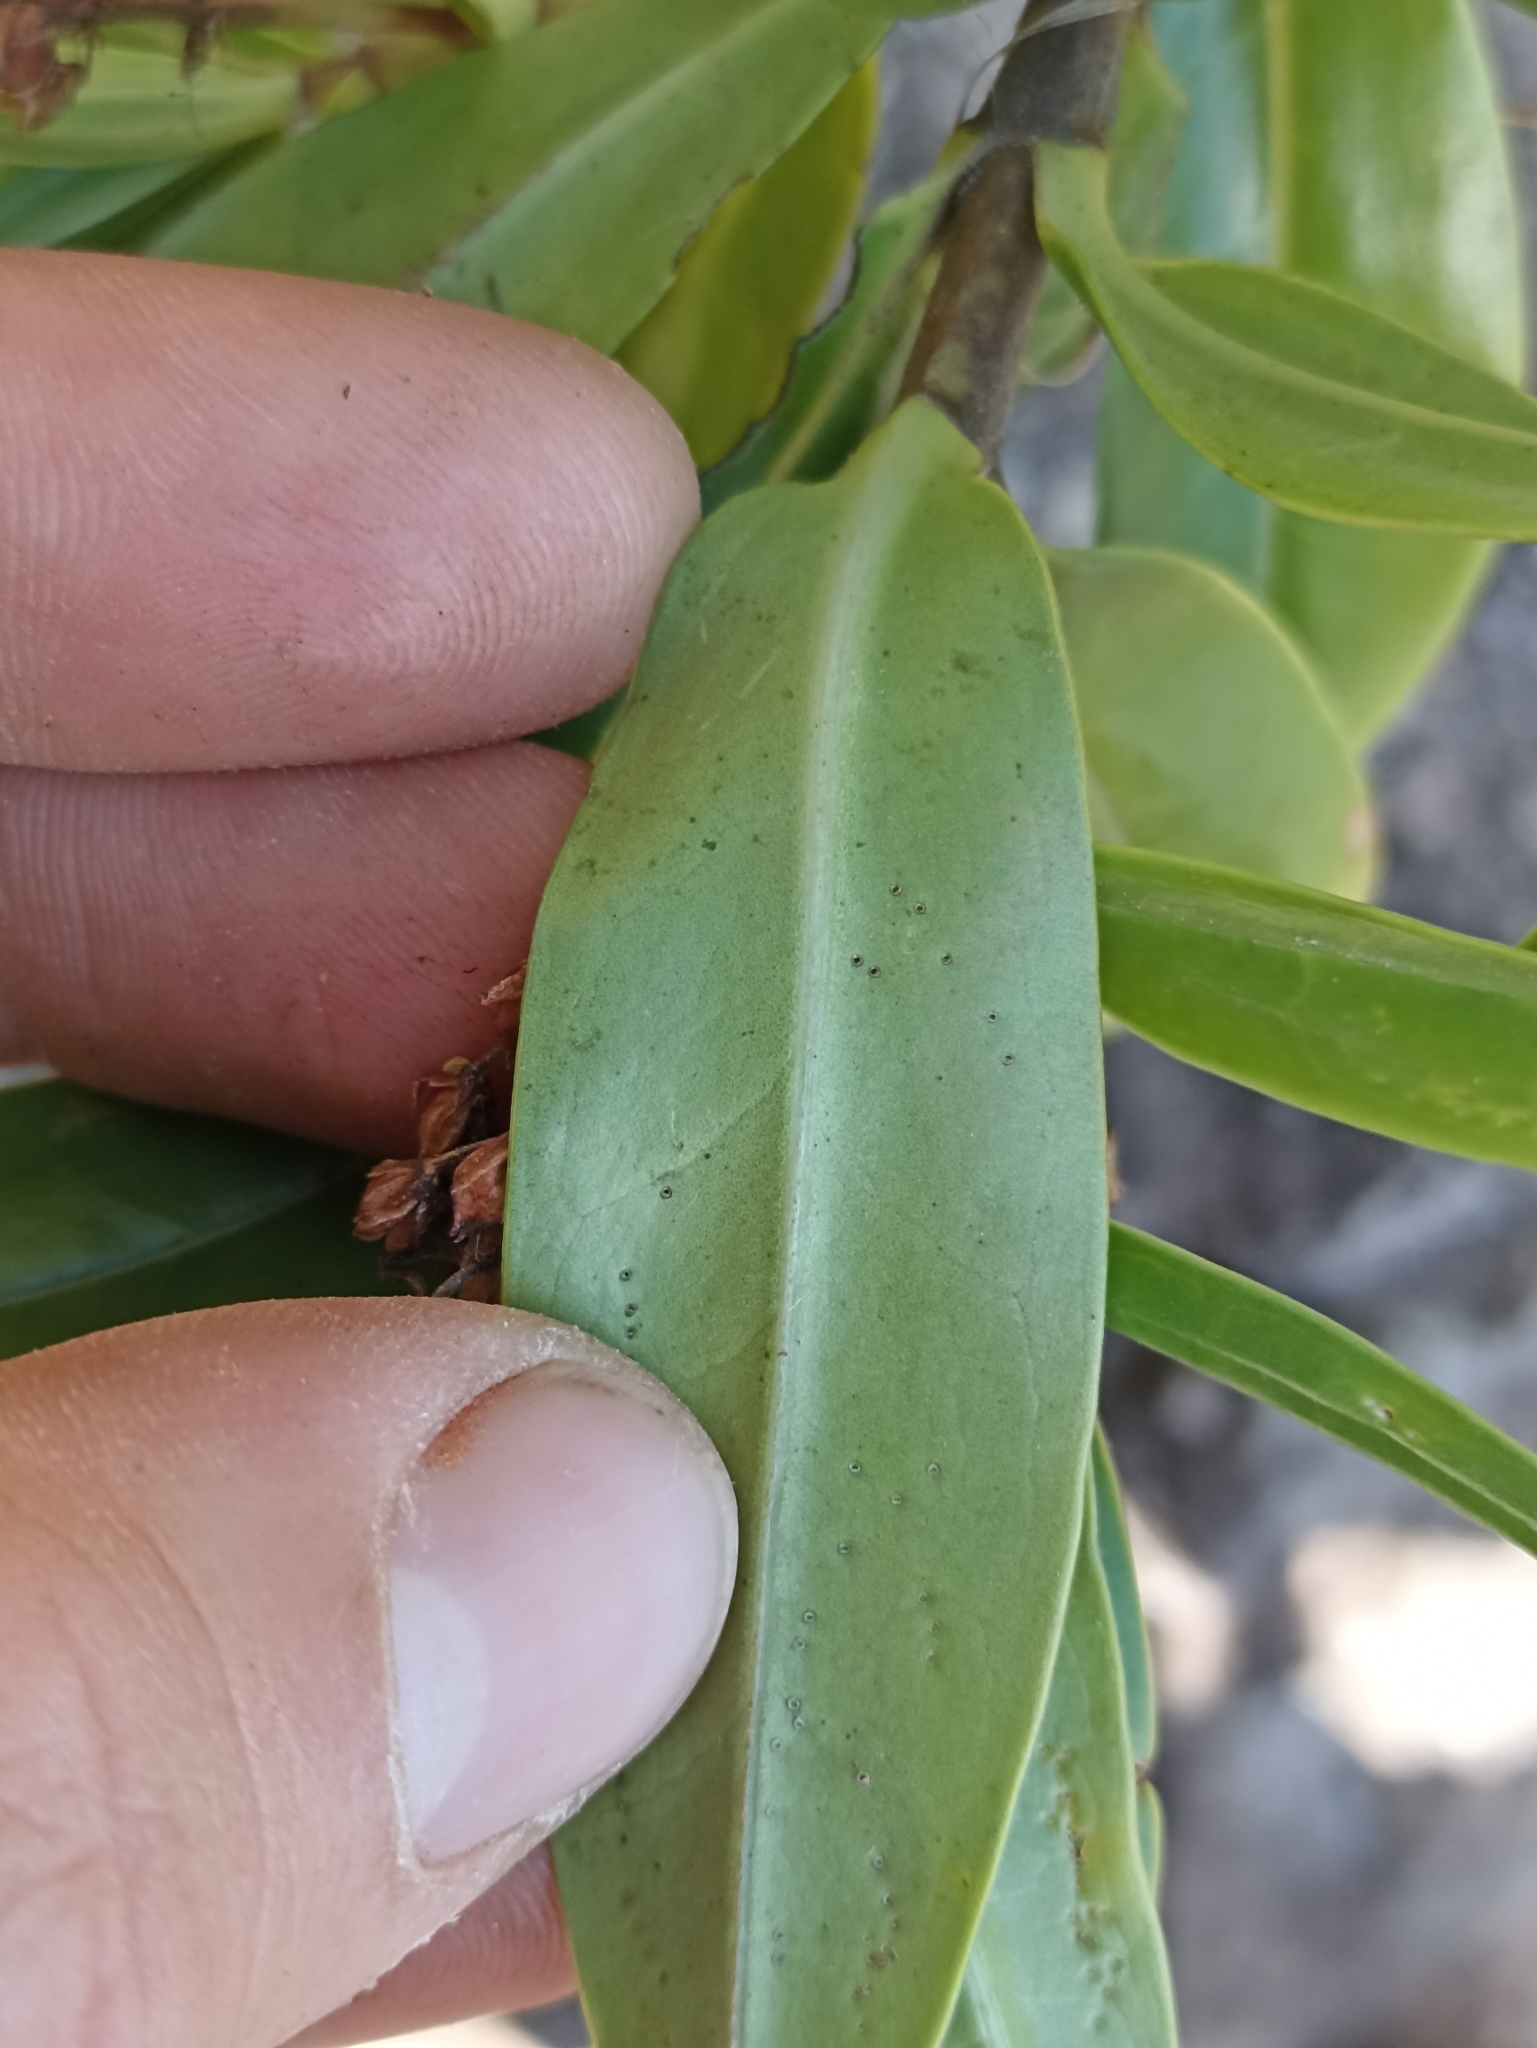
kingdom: Plantae
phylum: Tracheophyta
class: Magnoliopsida
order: Lamiales
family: Plantaginaceae
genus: Veronica
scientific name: Veronica bollonsii
